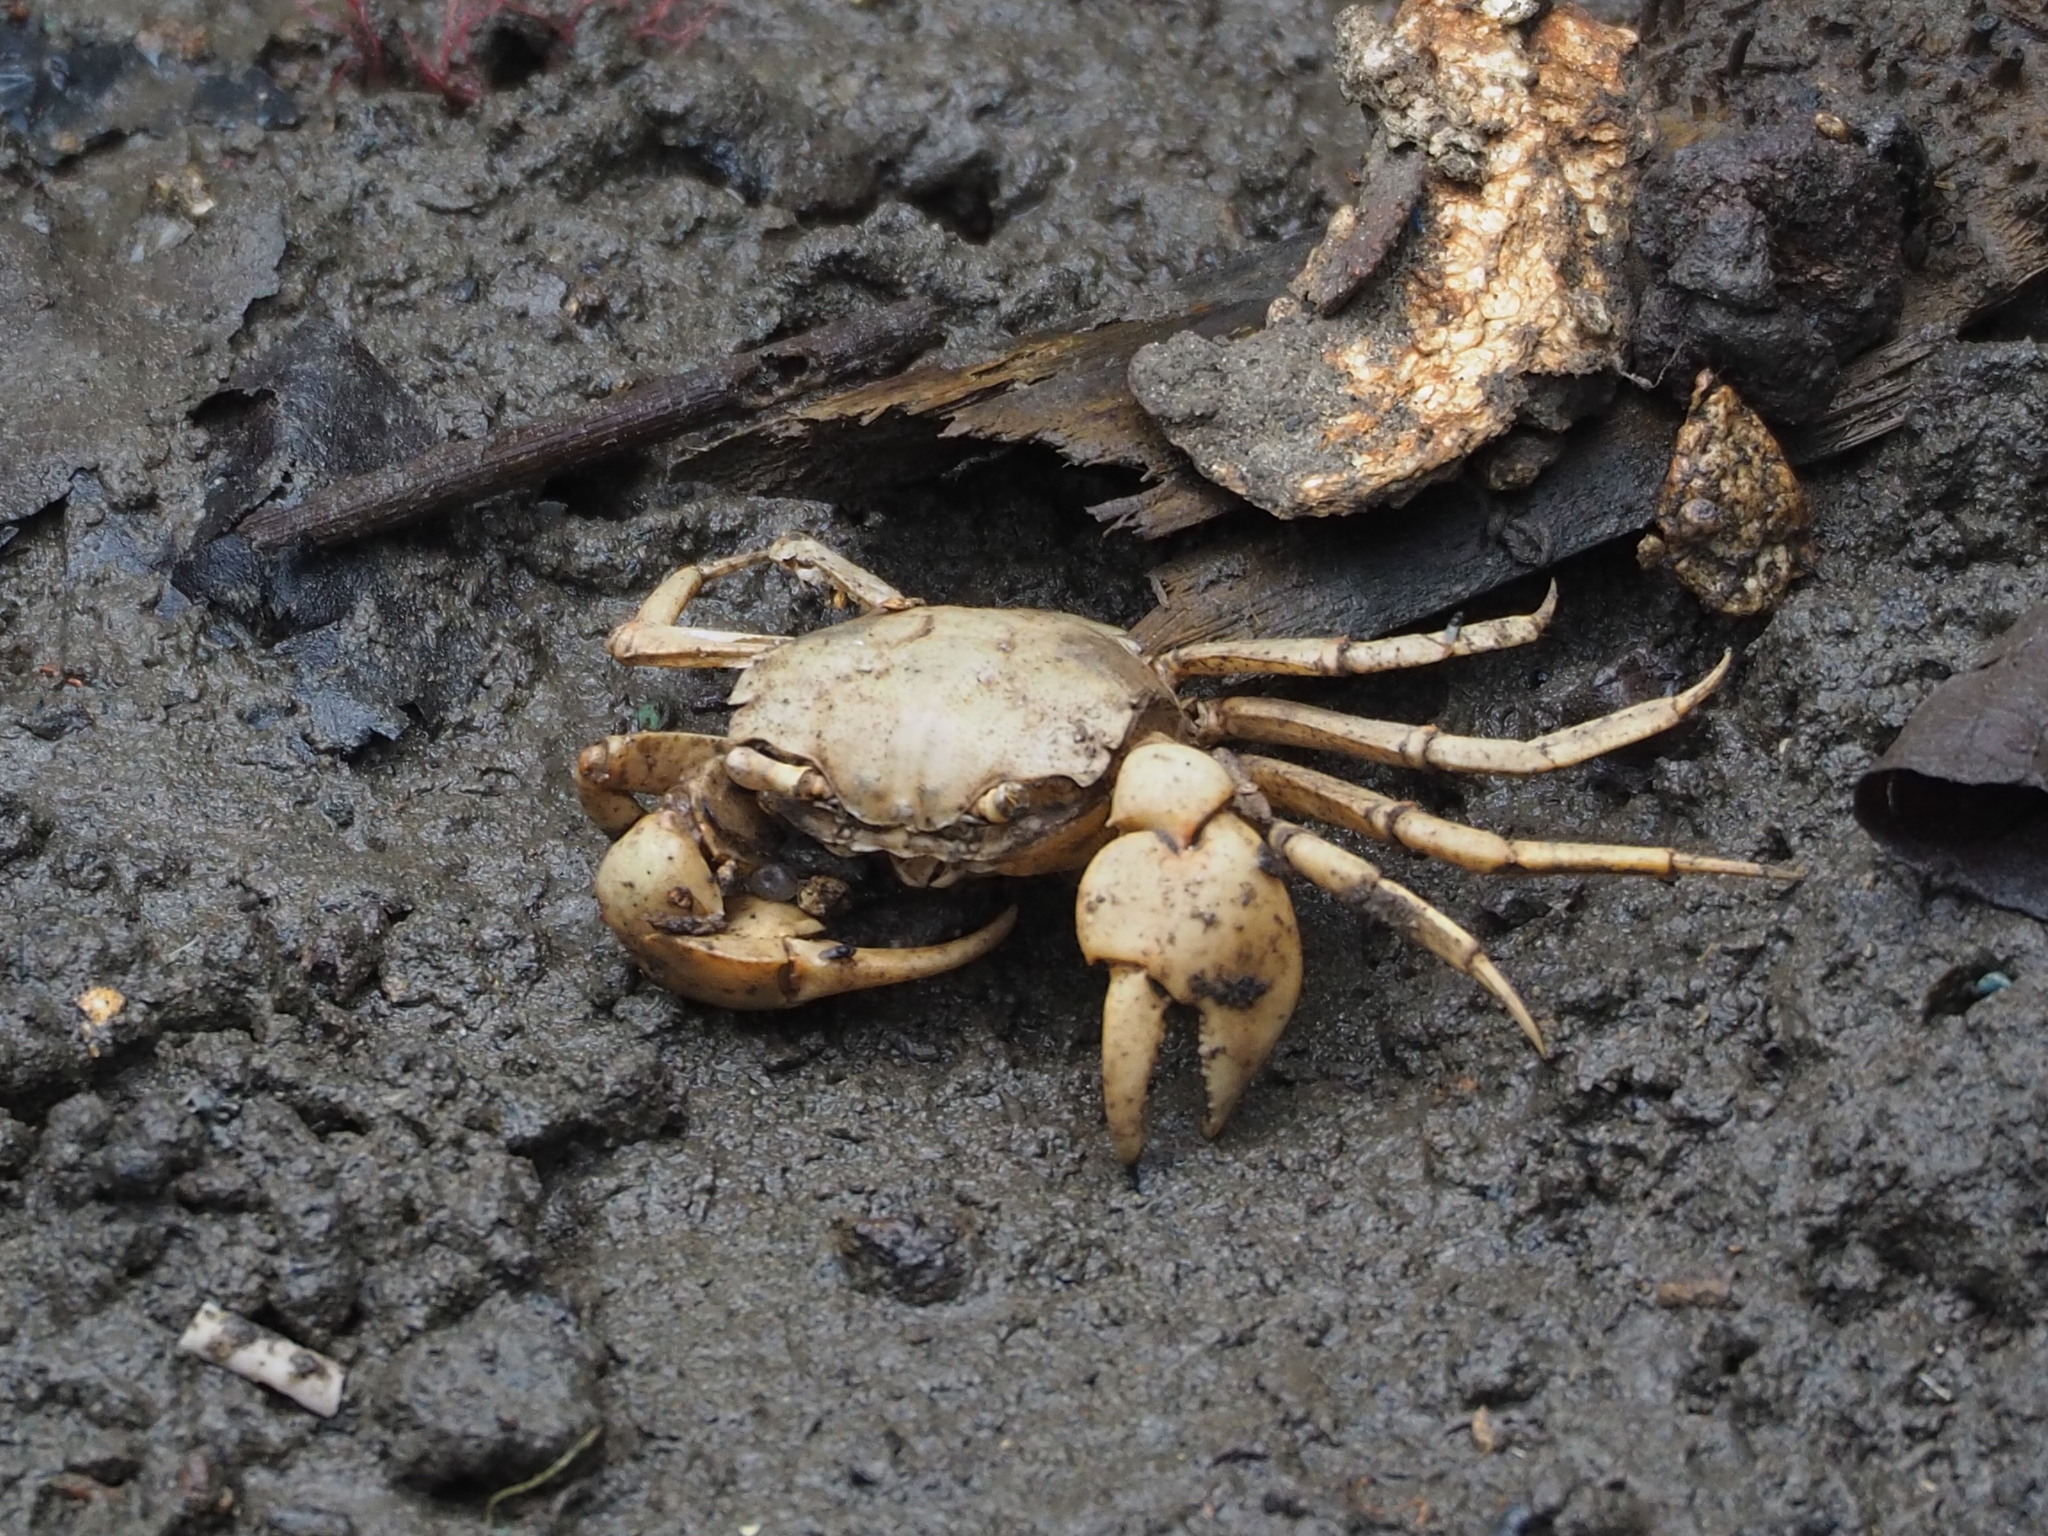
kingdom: Animalia
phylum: Arthropoda
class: Malacostraca
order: Decapoda
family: Varunidae
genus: Helice
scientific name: Helice formosensis
